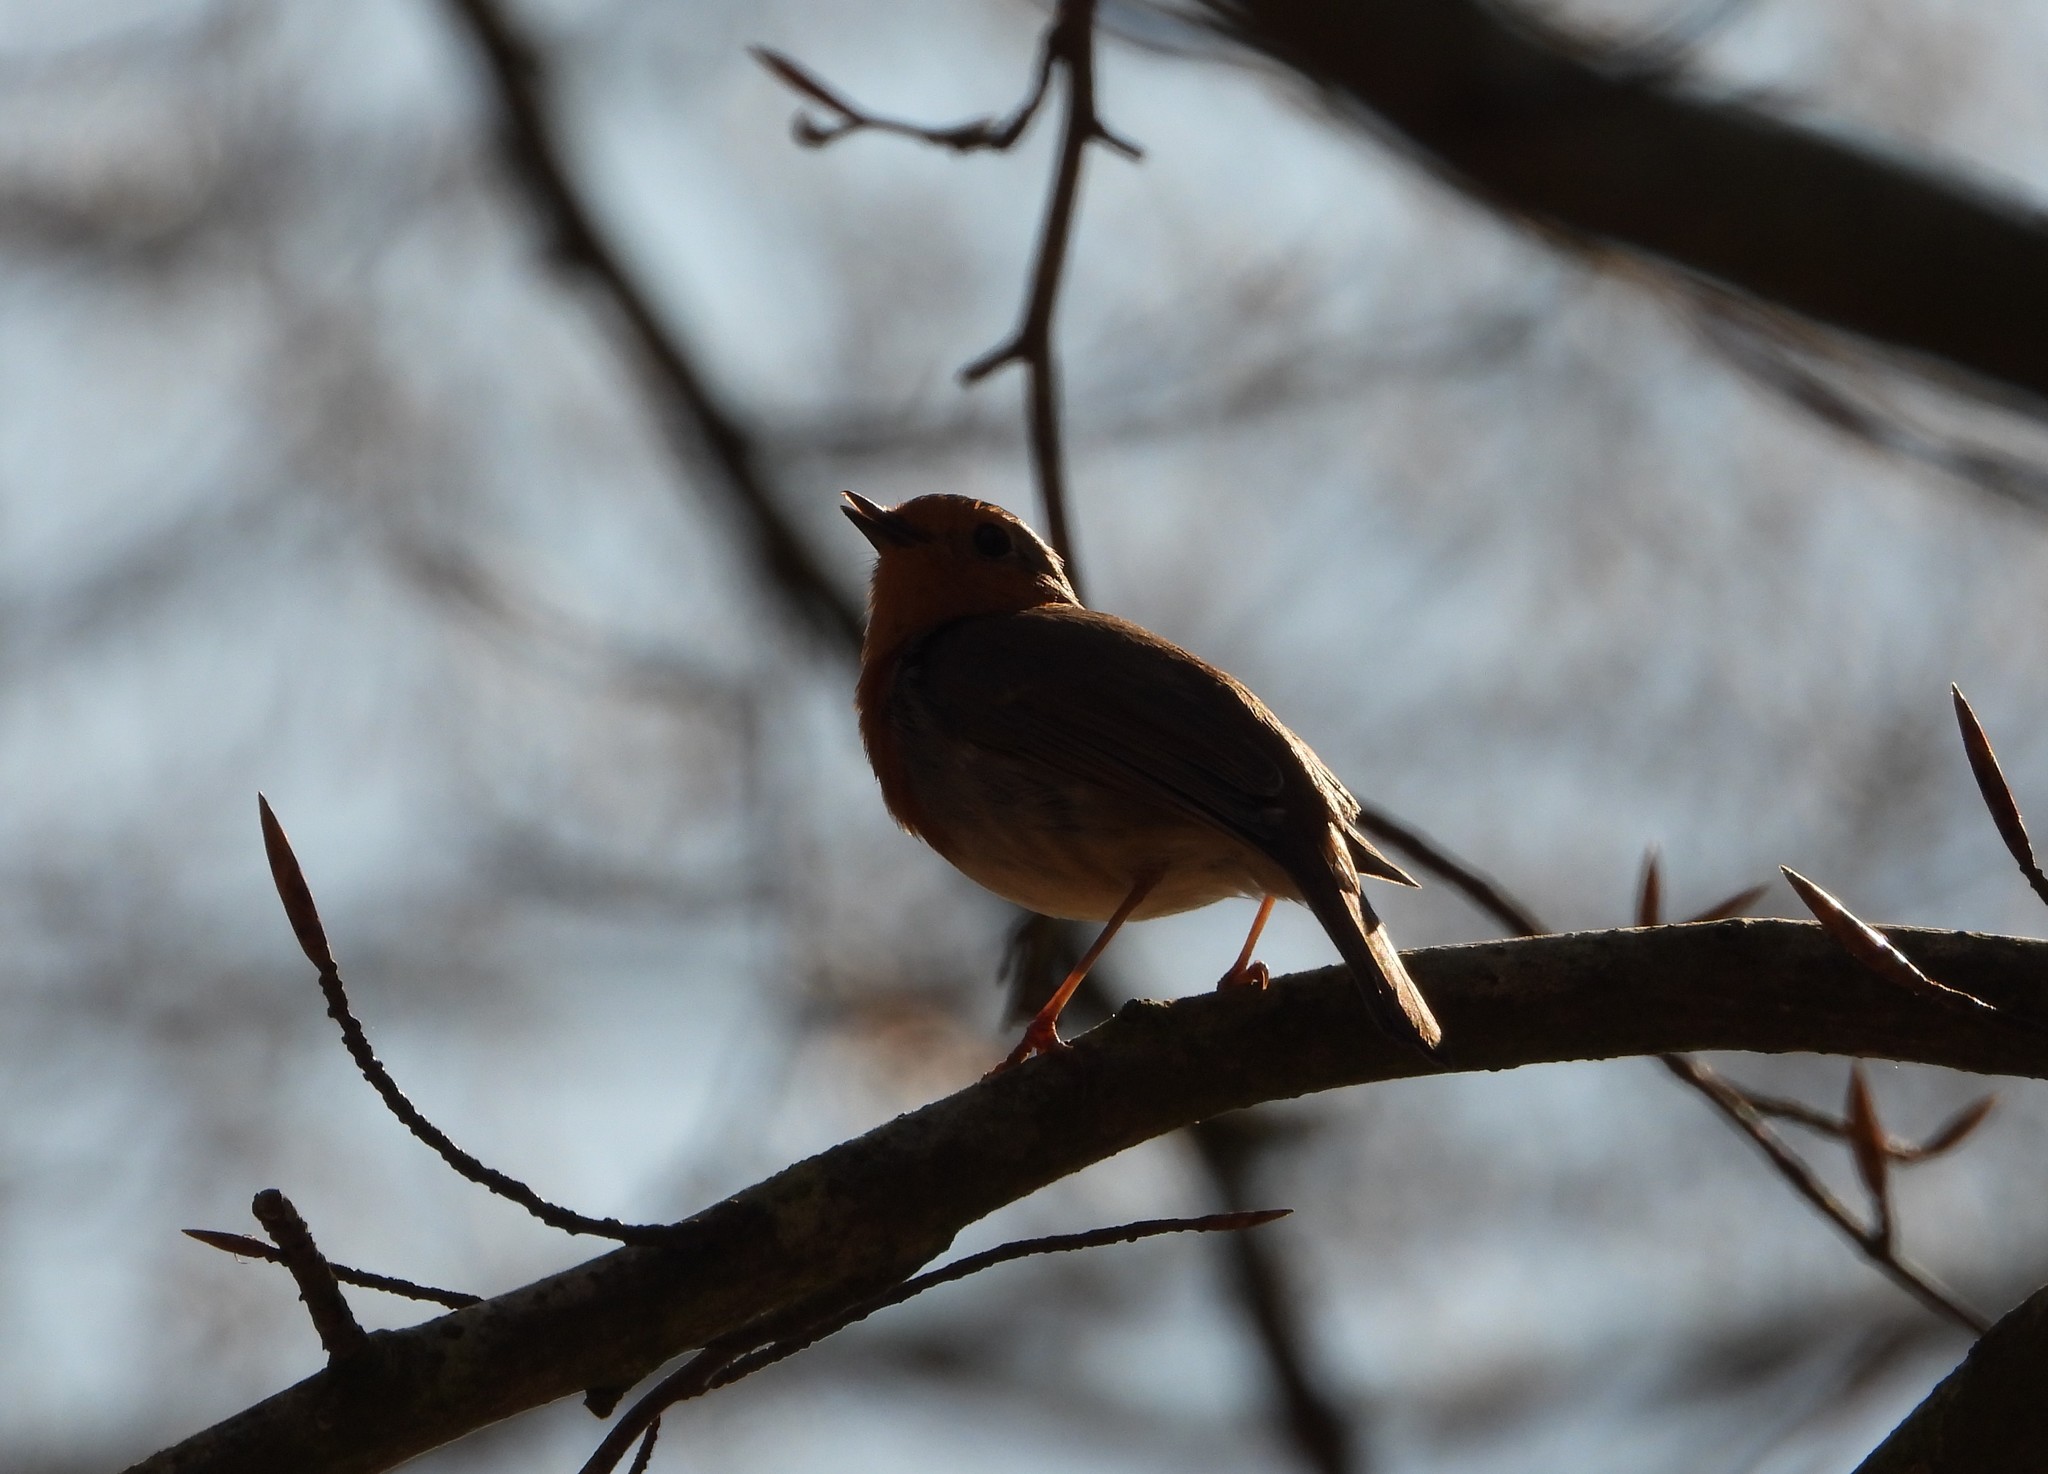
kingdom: Animalia
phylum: Chordata
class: Aves
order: Passeriformes
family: Muscicapidae
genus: Erithacus
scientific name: Erithacus rubecula
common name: European robin
